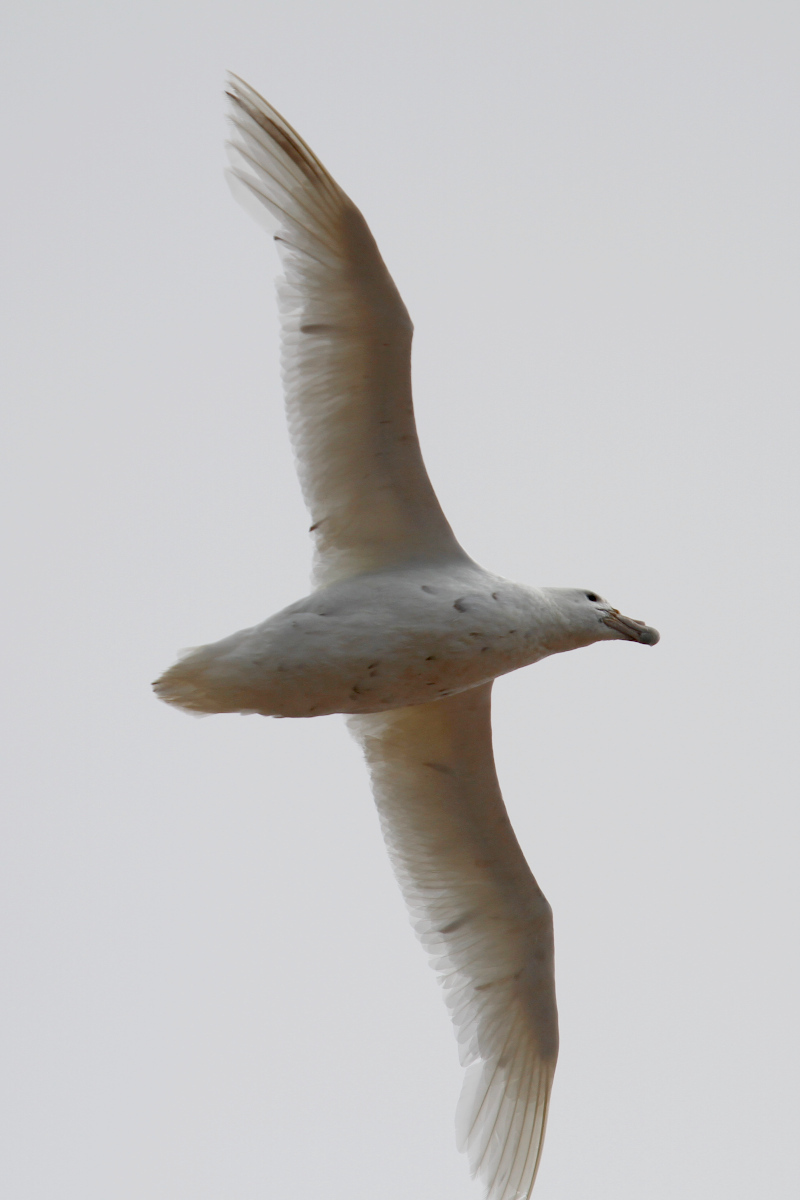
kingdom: Animalia
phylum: Chordata
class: Aves
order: Procellariiformes
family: Procellariidae
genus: Macronectes
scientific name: Macronectes giganteus
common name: Southern giant petrel
